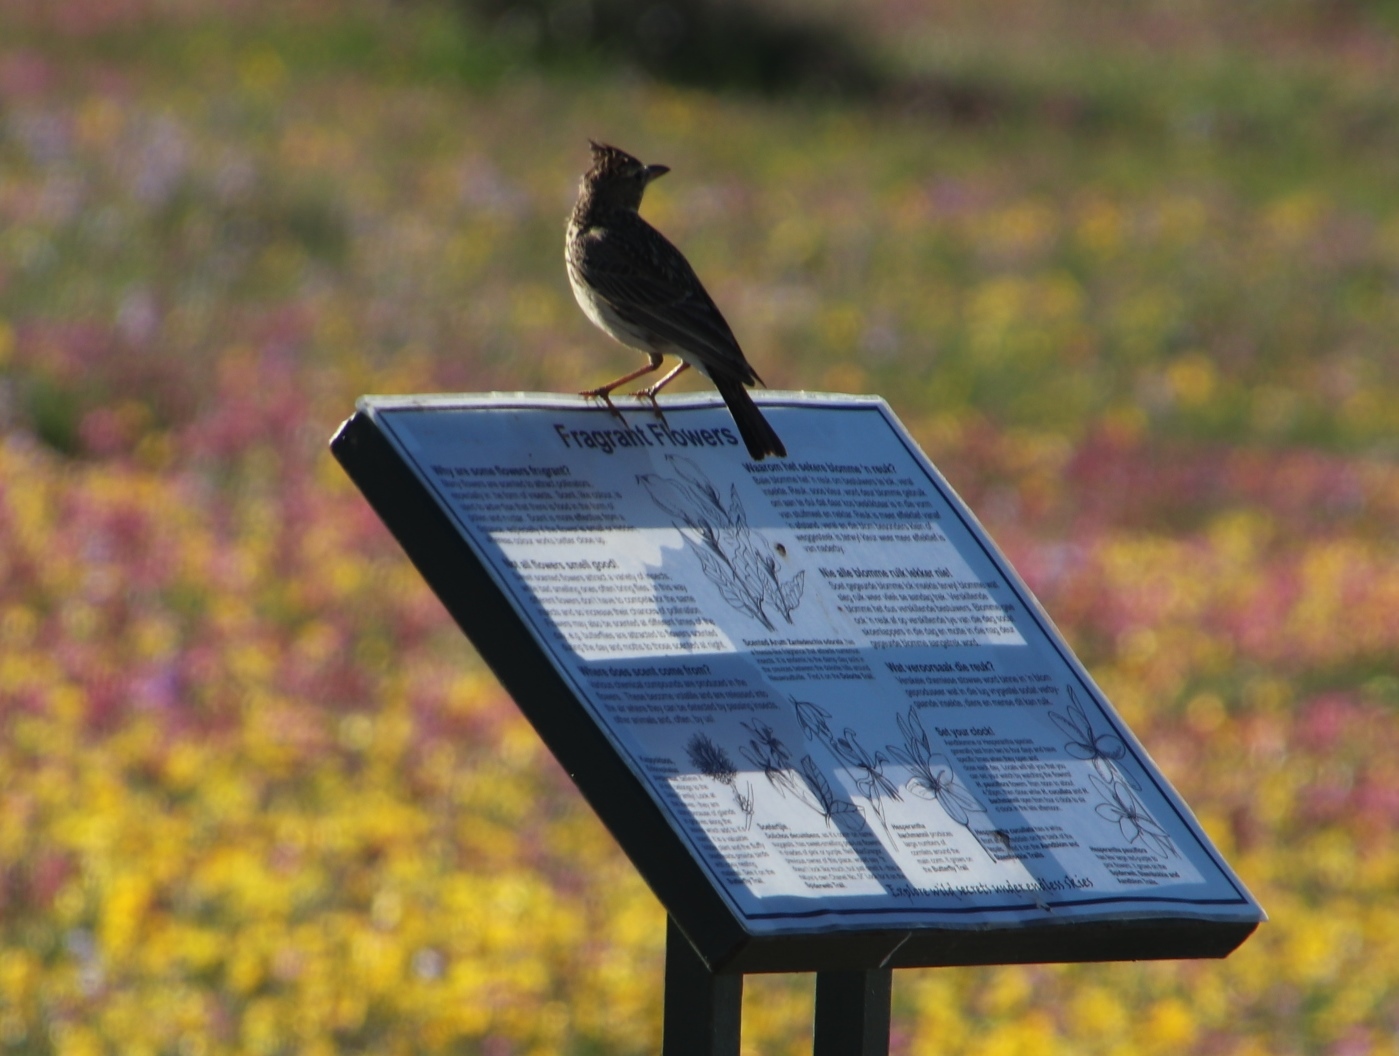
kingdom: Animalia
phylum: Chordata
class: Aves
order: Passeriformes
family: Alaudidae
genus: Galerida
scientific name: Galerida magnirostris
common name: Large-billed lark
